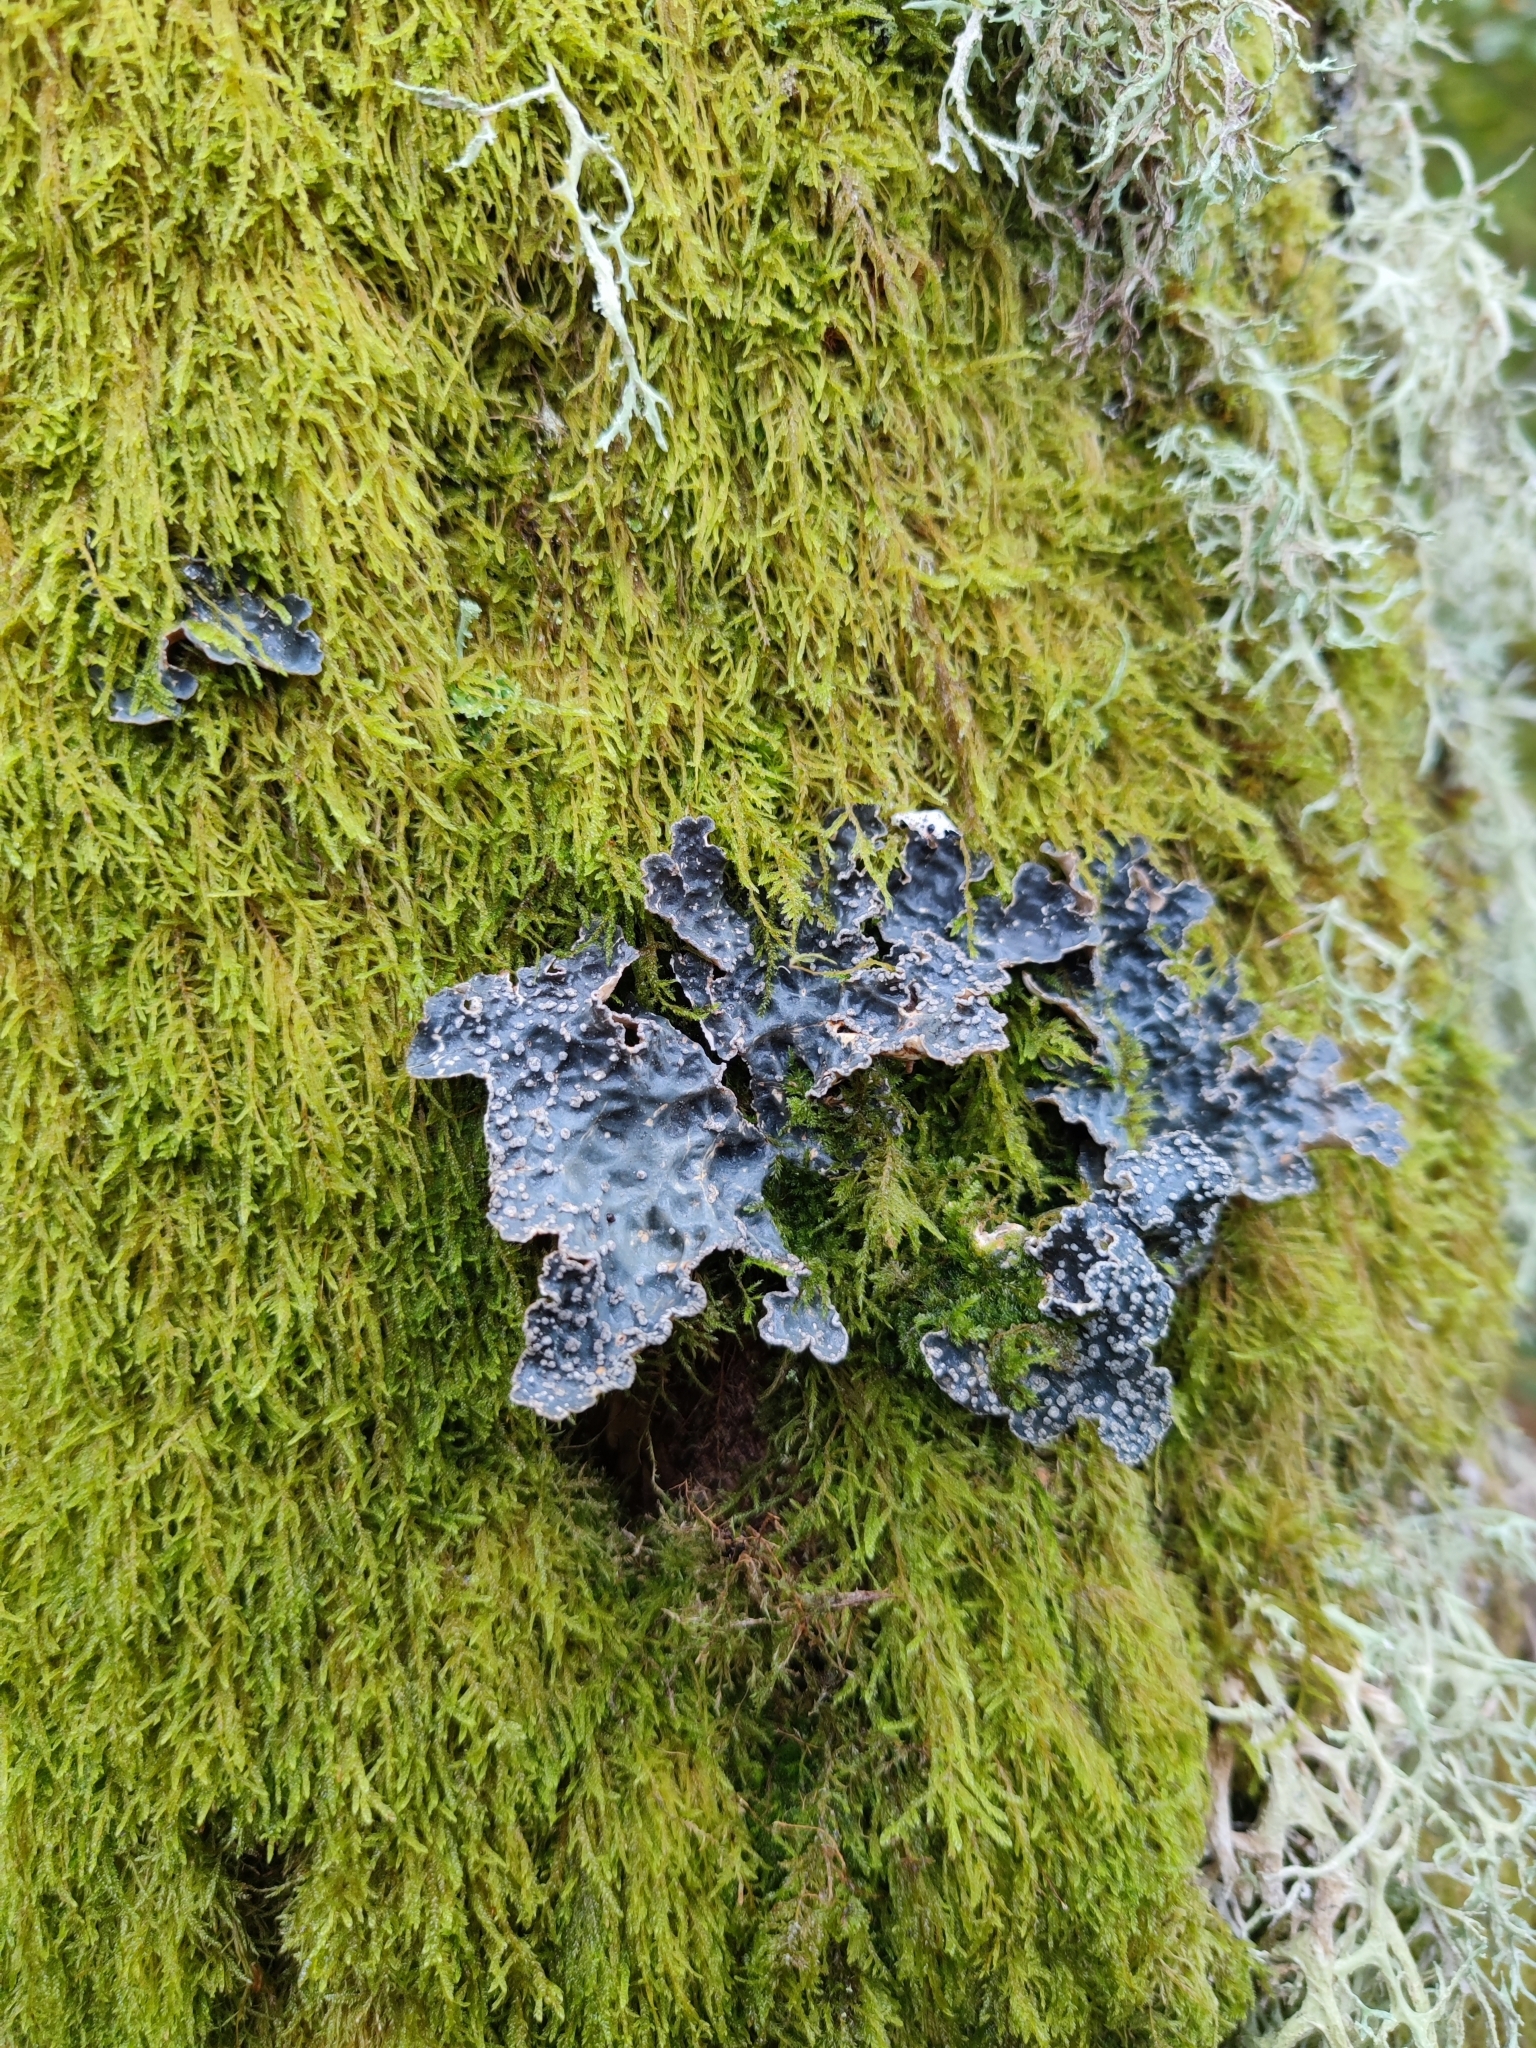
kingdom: Fungi
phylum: Ascomycota
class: Lecanoromycetes
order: Peltigerales
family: Lobariaceae
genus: Lobarina
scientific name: Lobarina scrobiculata
